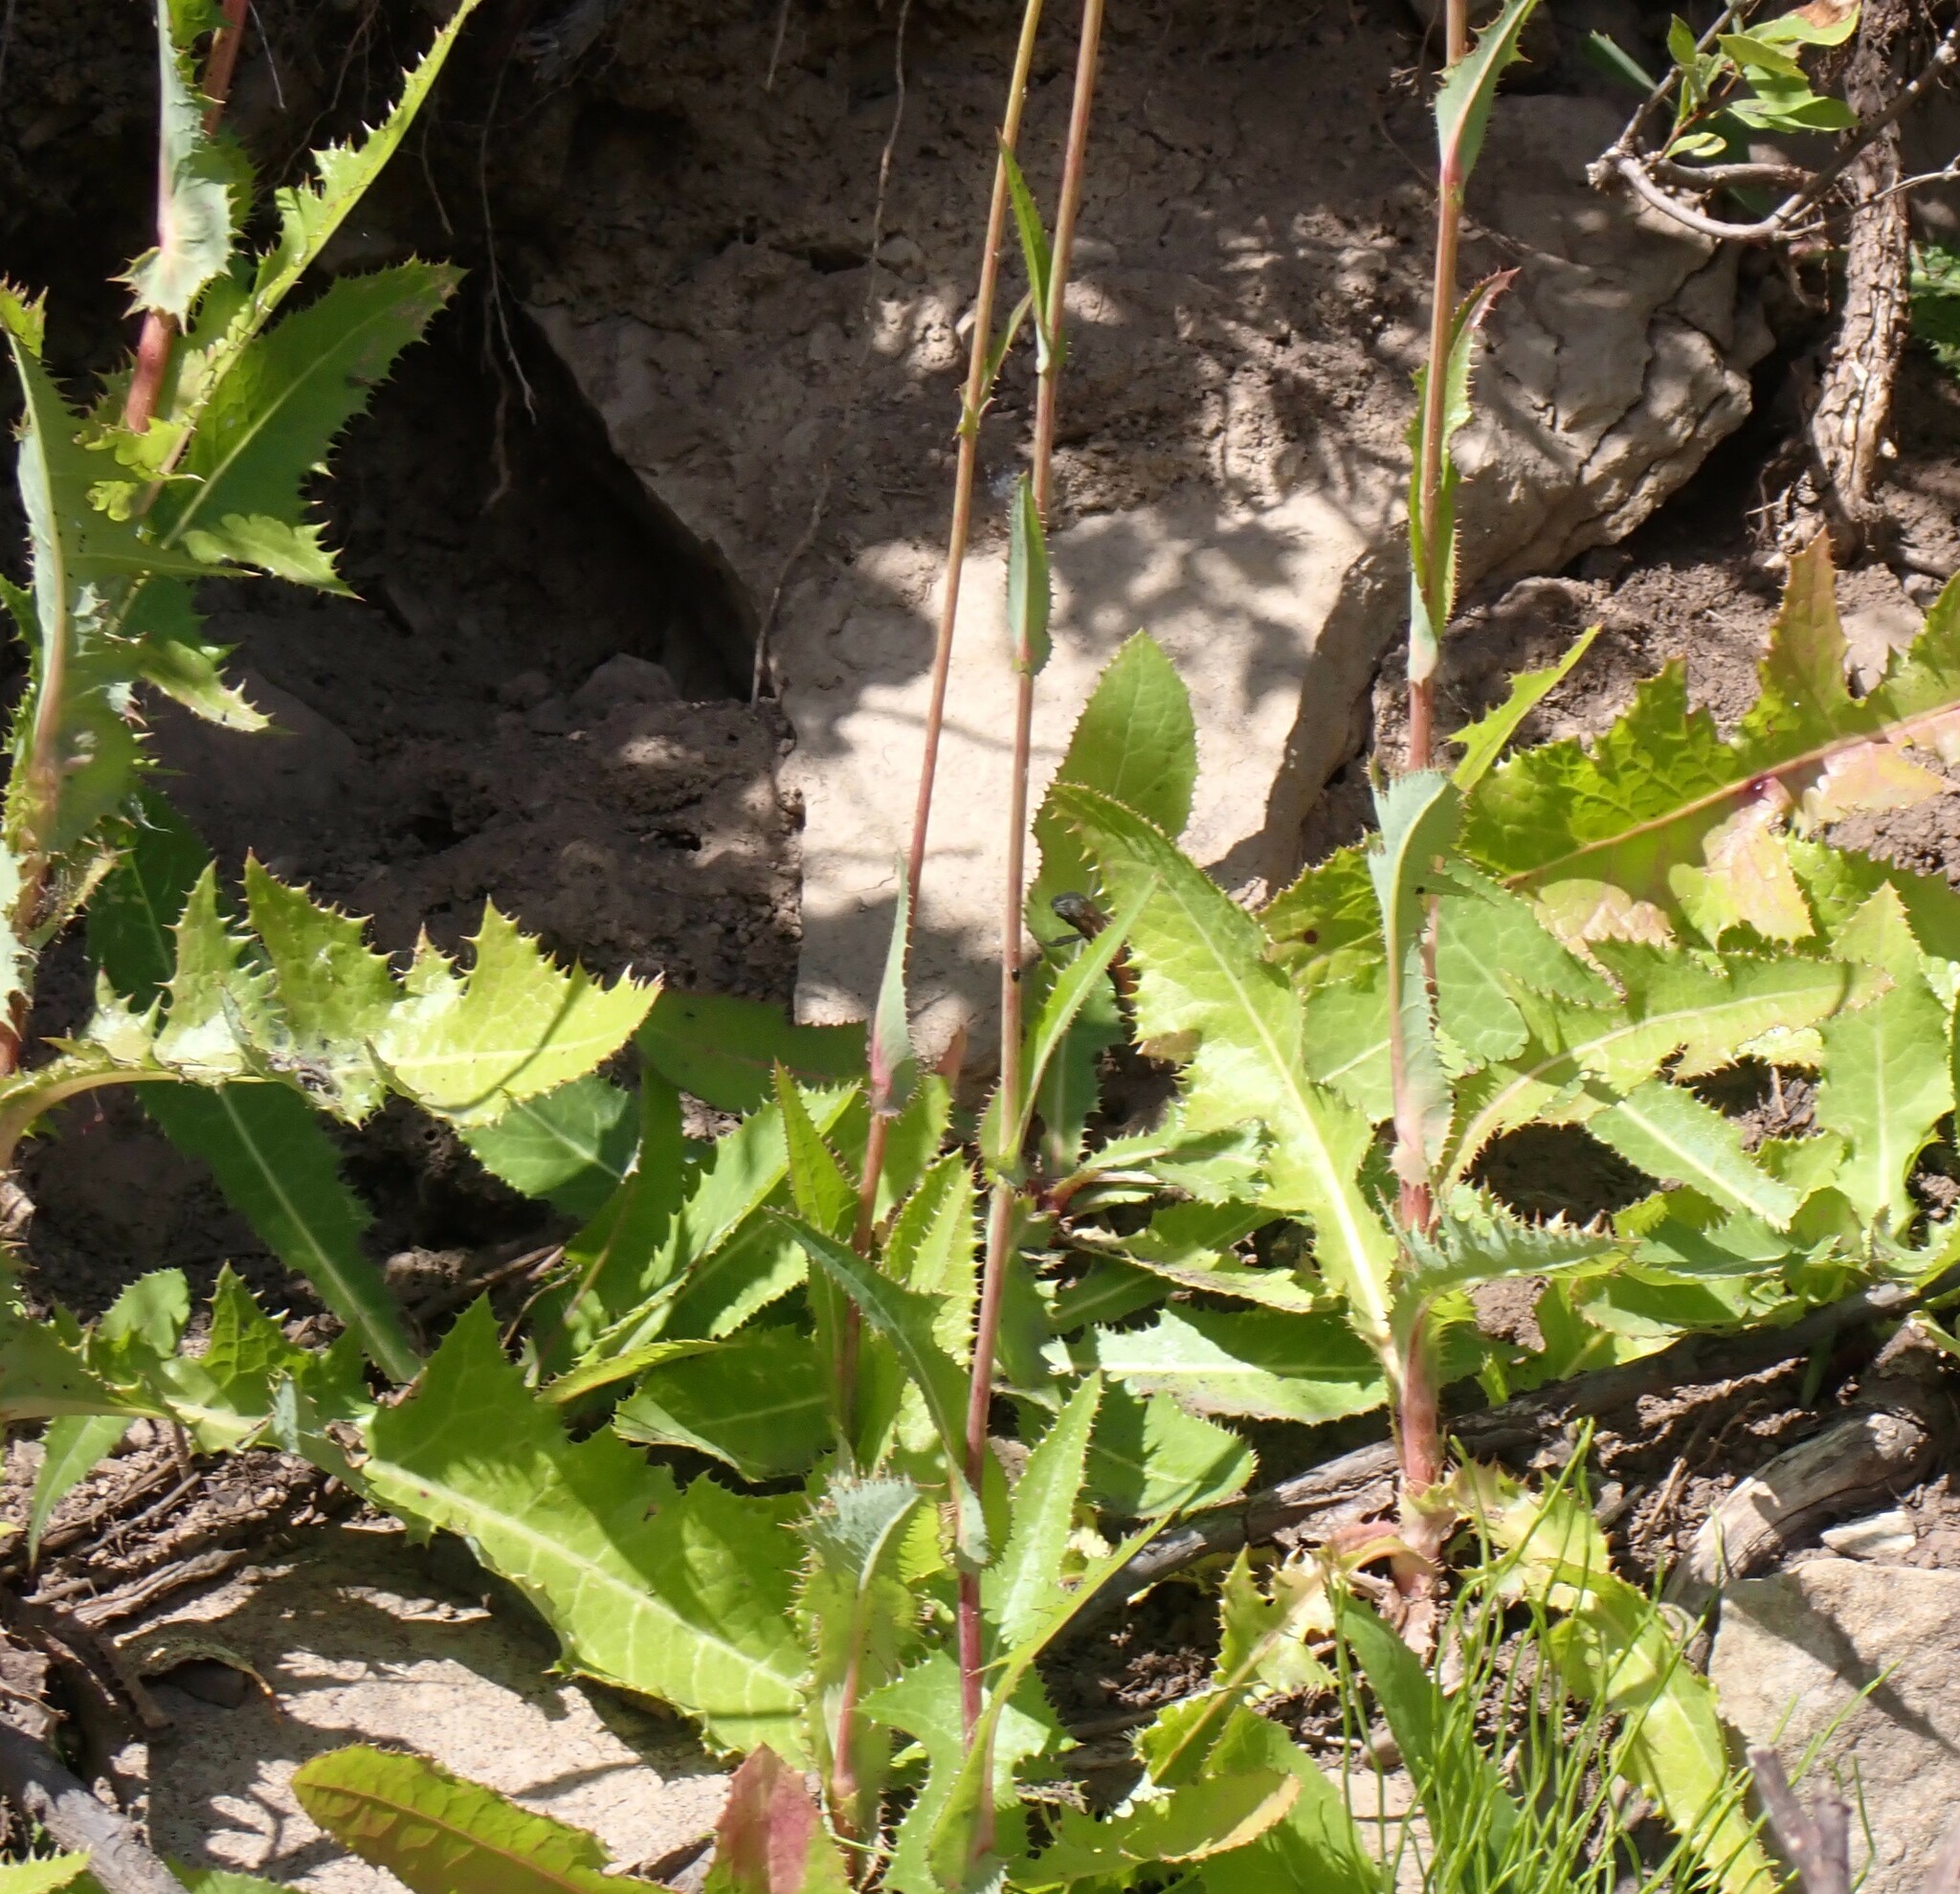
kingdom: Plantae
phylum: Tracheophyta
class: Magnoliopsida
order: Asterales
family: Asteraceae
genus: Sonchus
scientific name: Sonchus arvensis
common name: Perennial sow-thistle
